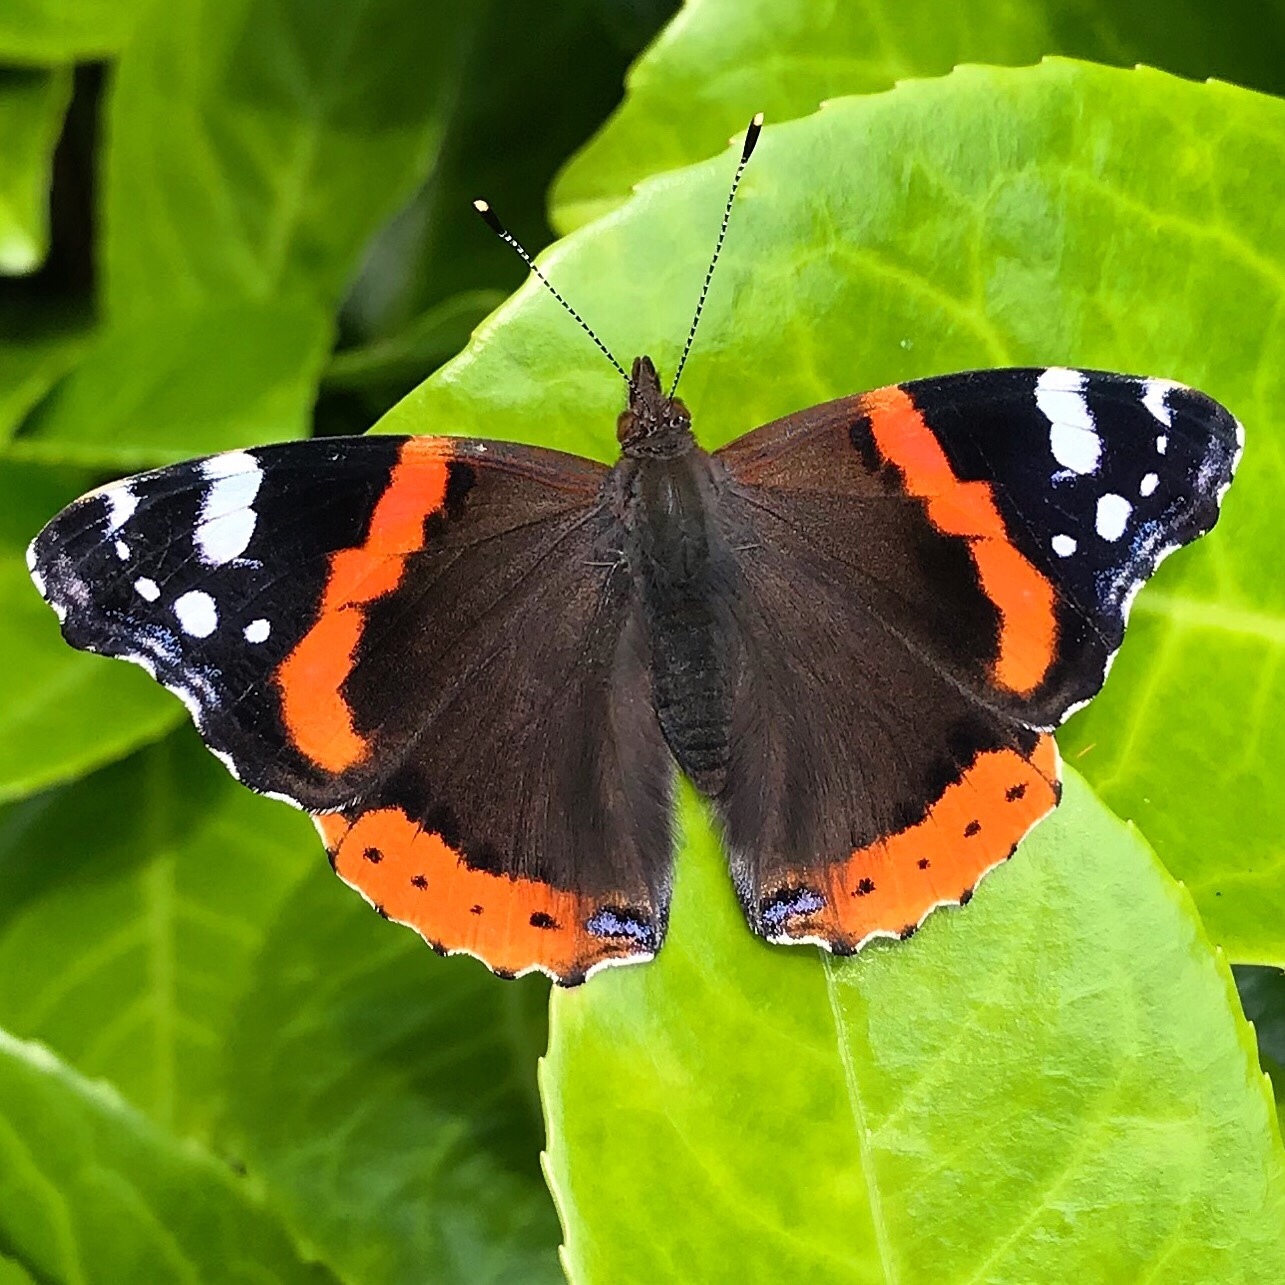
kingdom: Animalia
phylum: Arthropoda
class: Insecta
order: Lepidoptera
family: Nymphalidae
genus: Vanessa
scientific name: Vanessa atalanta
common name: Red admiral
